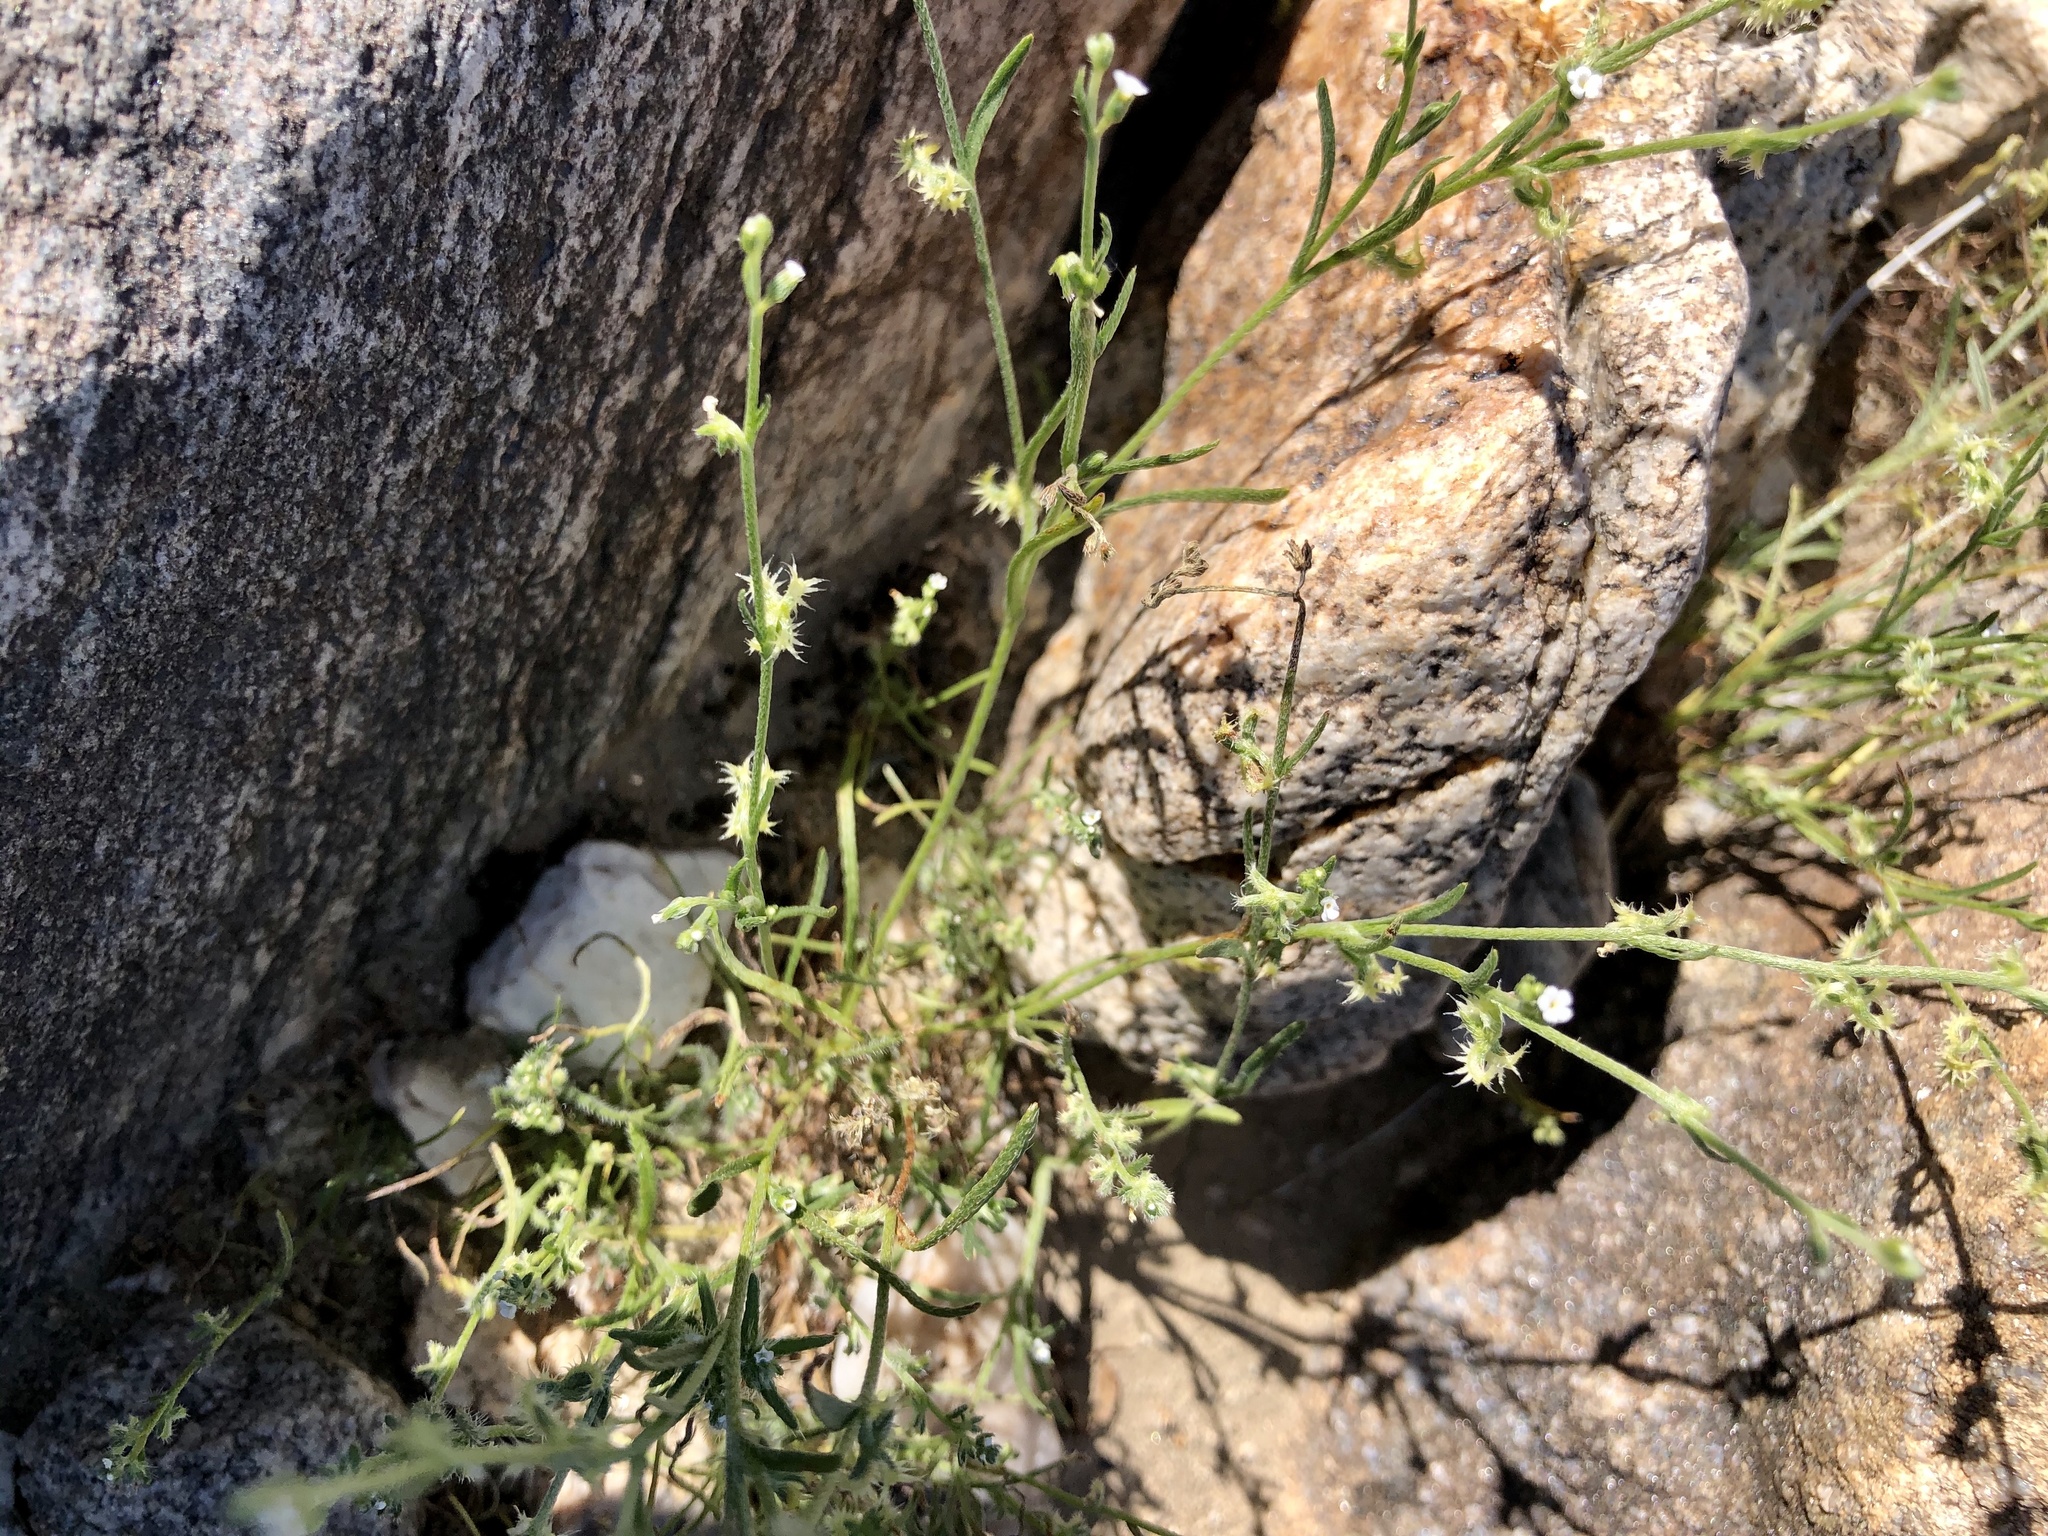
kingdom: Plantae
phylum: Tracheophyta
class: Magnoliopsida
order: Boraginales
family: Boraginaceae
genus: Pectocarya
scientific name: Pectocarya recurvata
